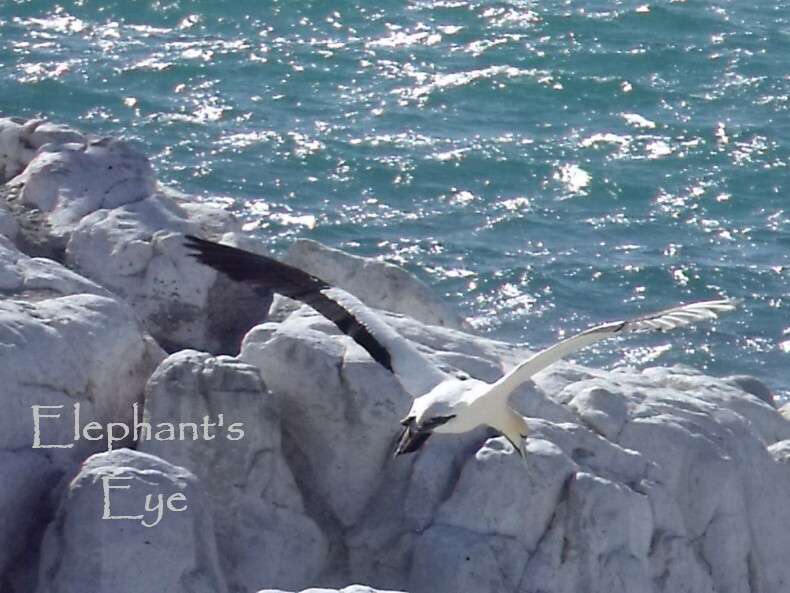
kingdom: Animalia
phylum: Chordata
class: Aves
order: Suliformes
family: Sulidae
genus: Morus
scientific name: Morus capensis
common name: Cape gannet
